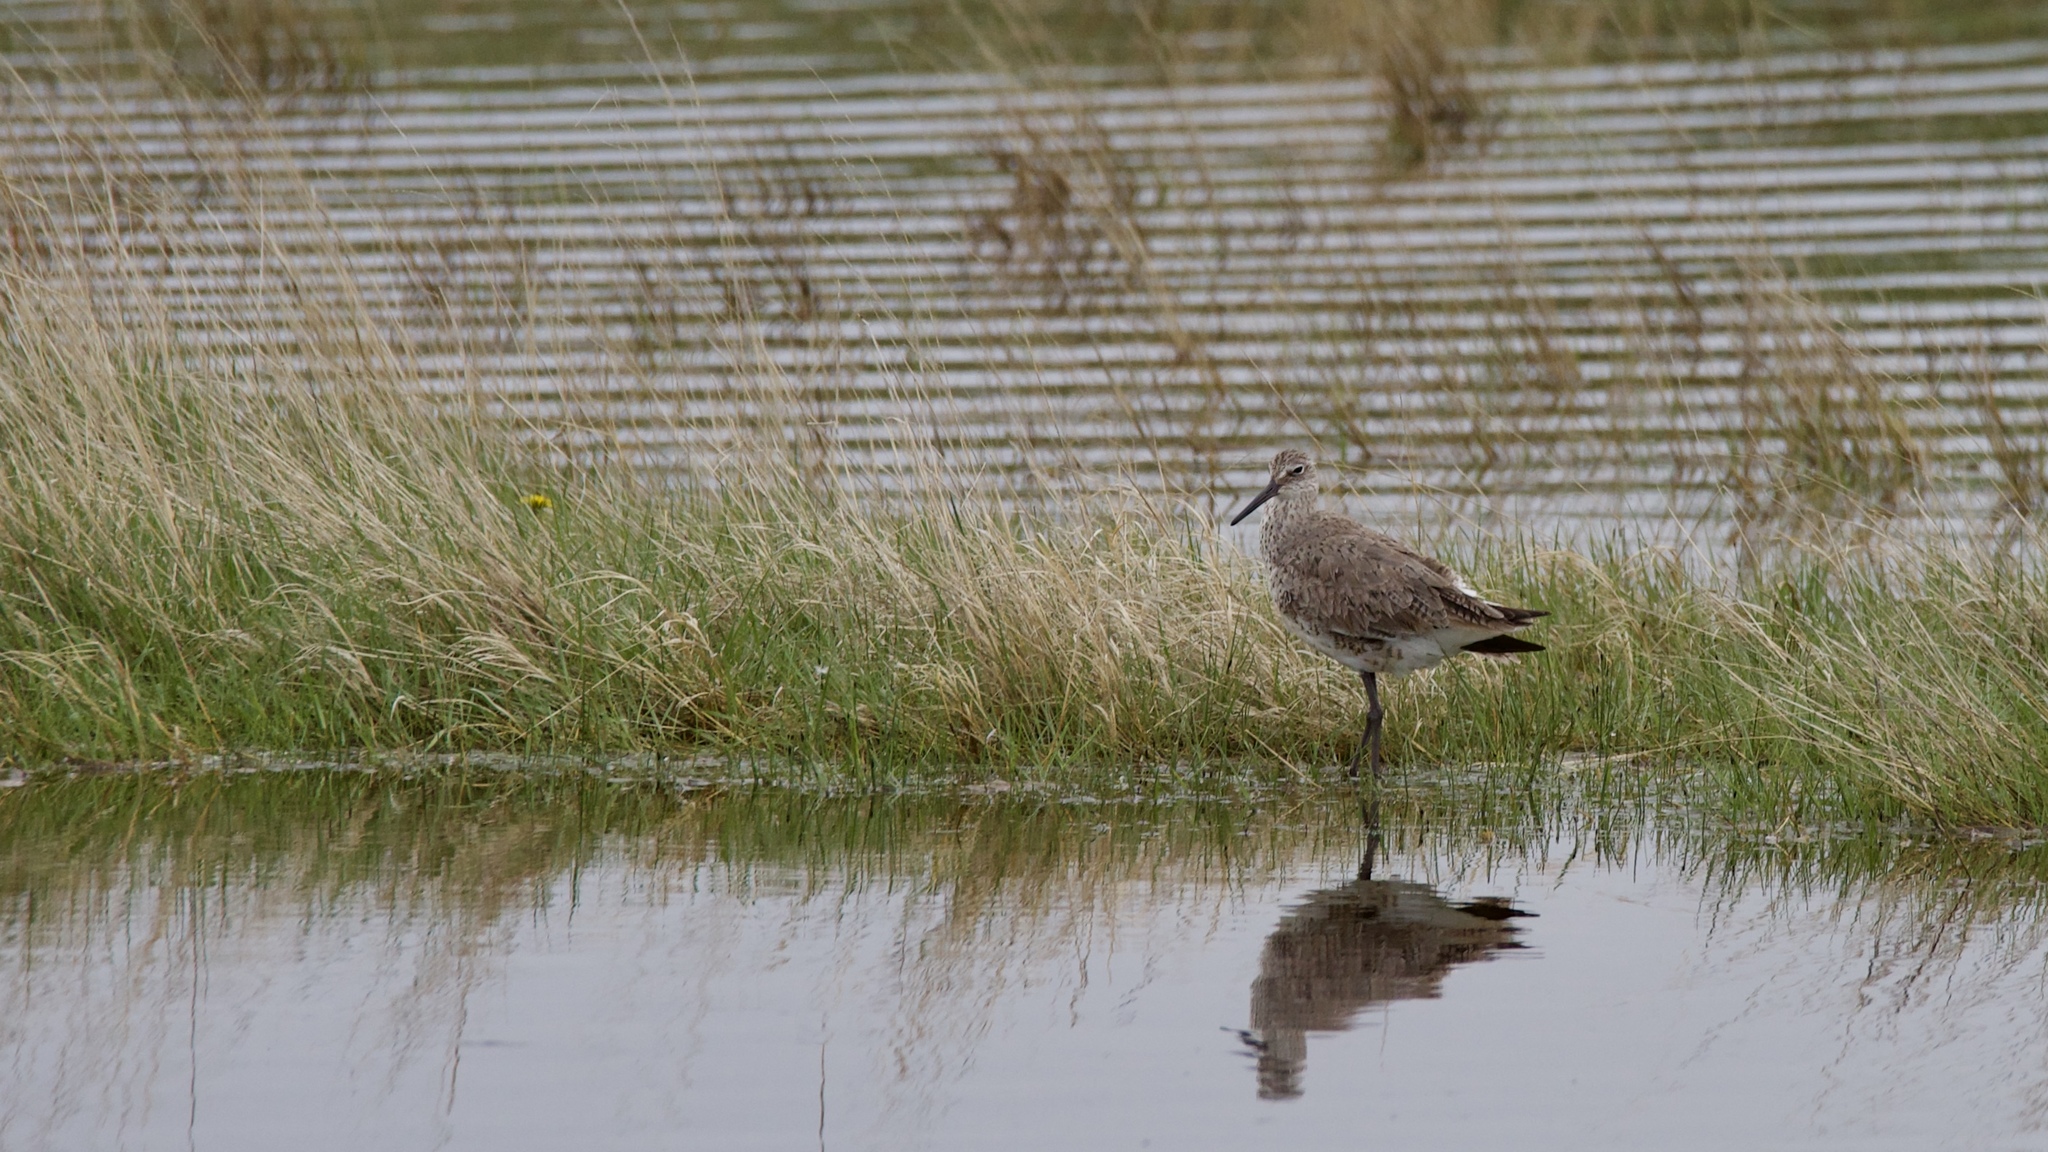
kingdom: Animalia
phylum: Chordata
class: Aves
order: Charadriiformes
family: Scolopacidae
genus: Tringa
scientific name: Tringa semipalmata
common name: Willet
